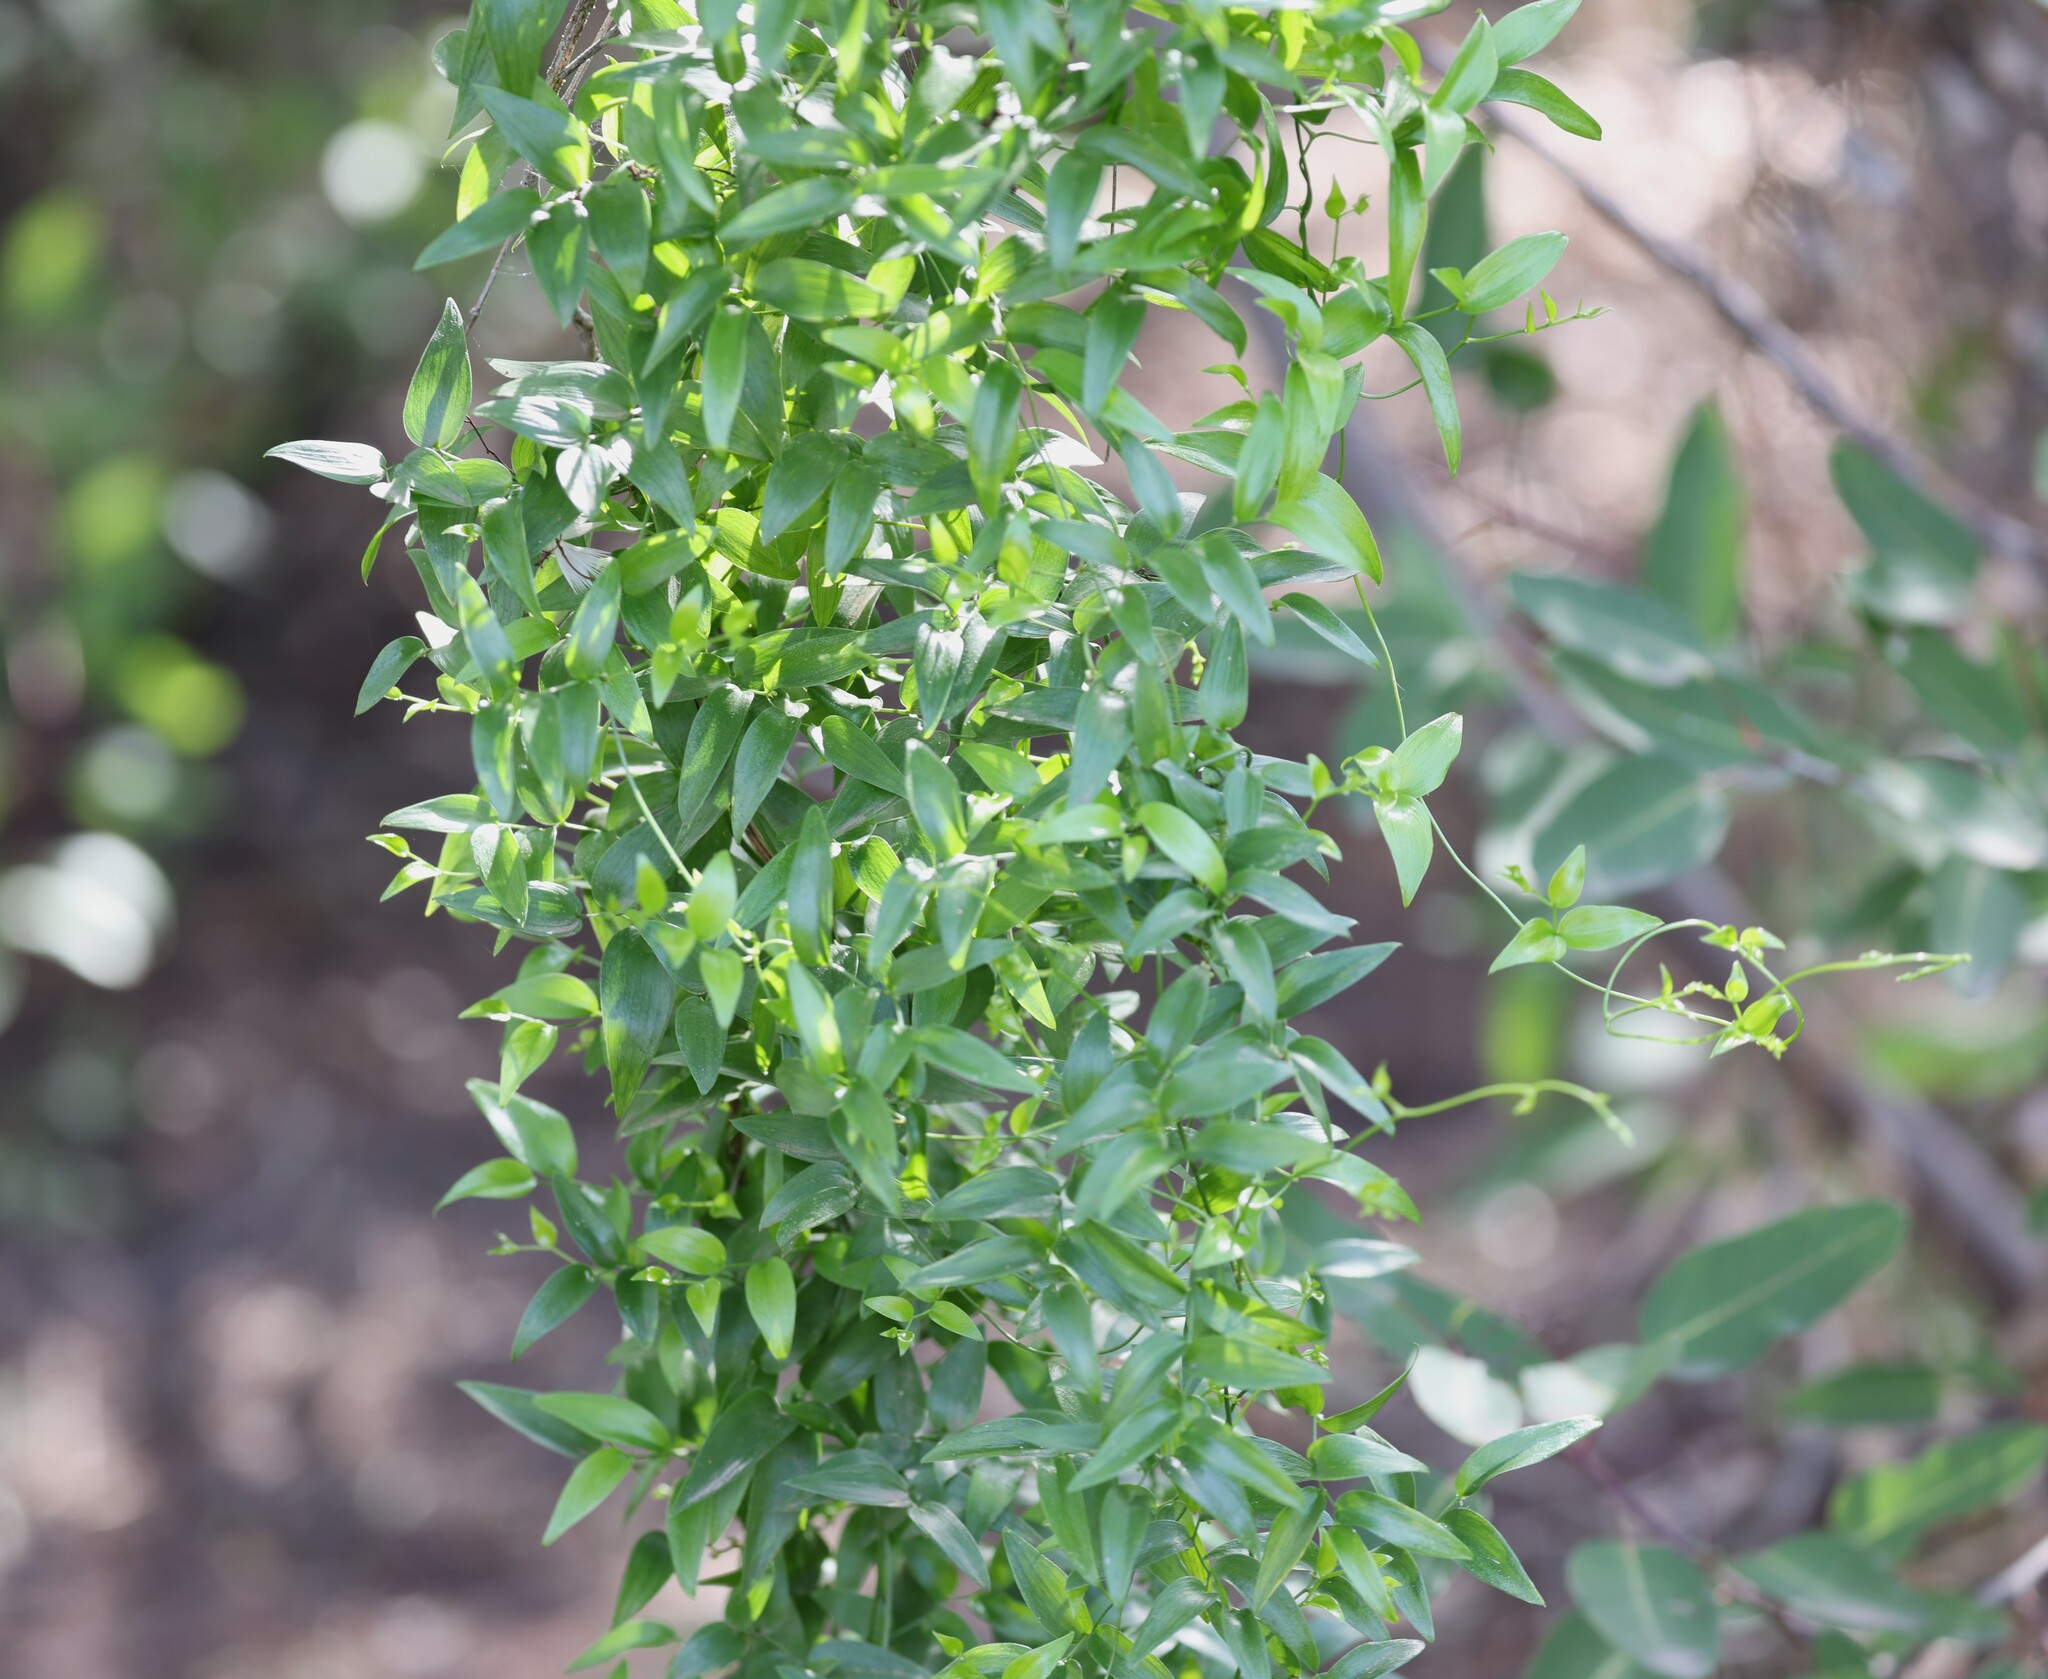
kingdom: Plantae
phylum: Tracheophyta
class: Liliopsida
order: Asparagales
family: Asparagaceae
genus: Asparagus
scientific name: Asparagus asparagoides
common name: African asparagus fern
